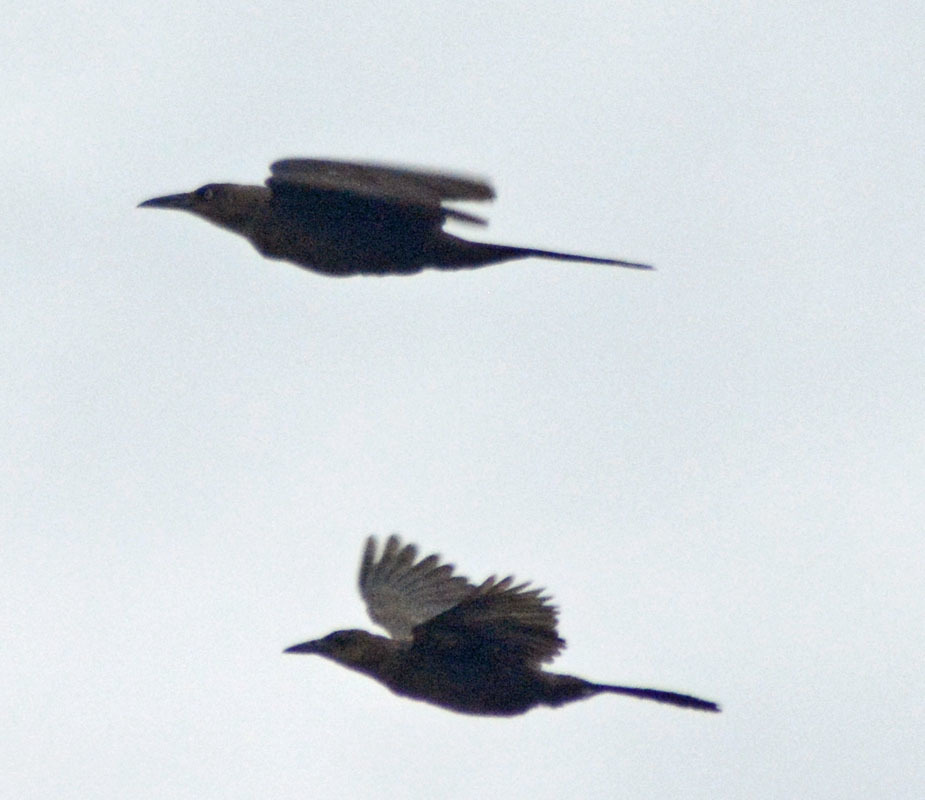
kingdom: Animalia
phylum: Chordata
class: Aves
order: Passeriformes
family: Icteridae
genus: Quiscalus
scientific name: Quiscalus mexicanus
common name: Great-tailed grackle
